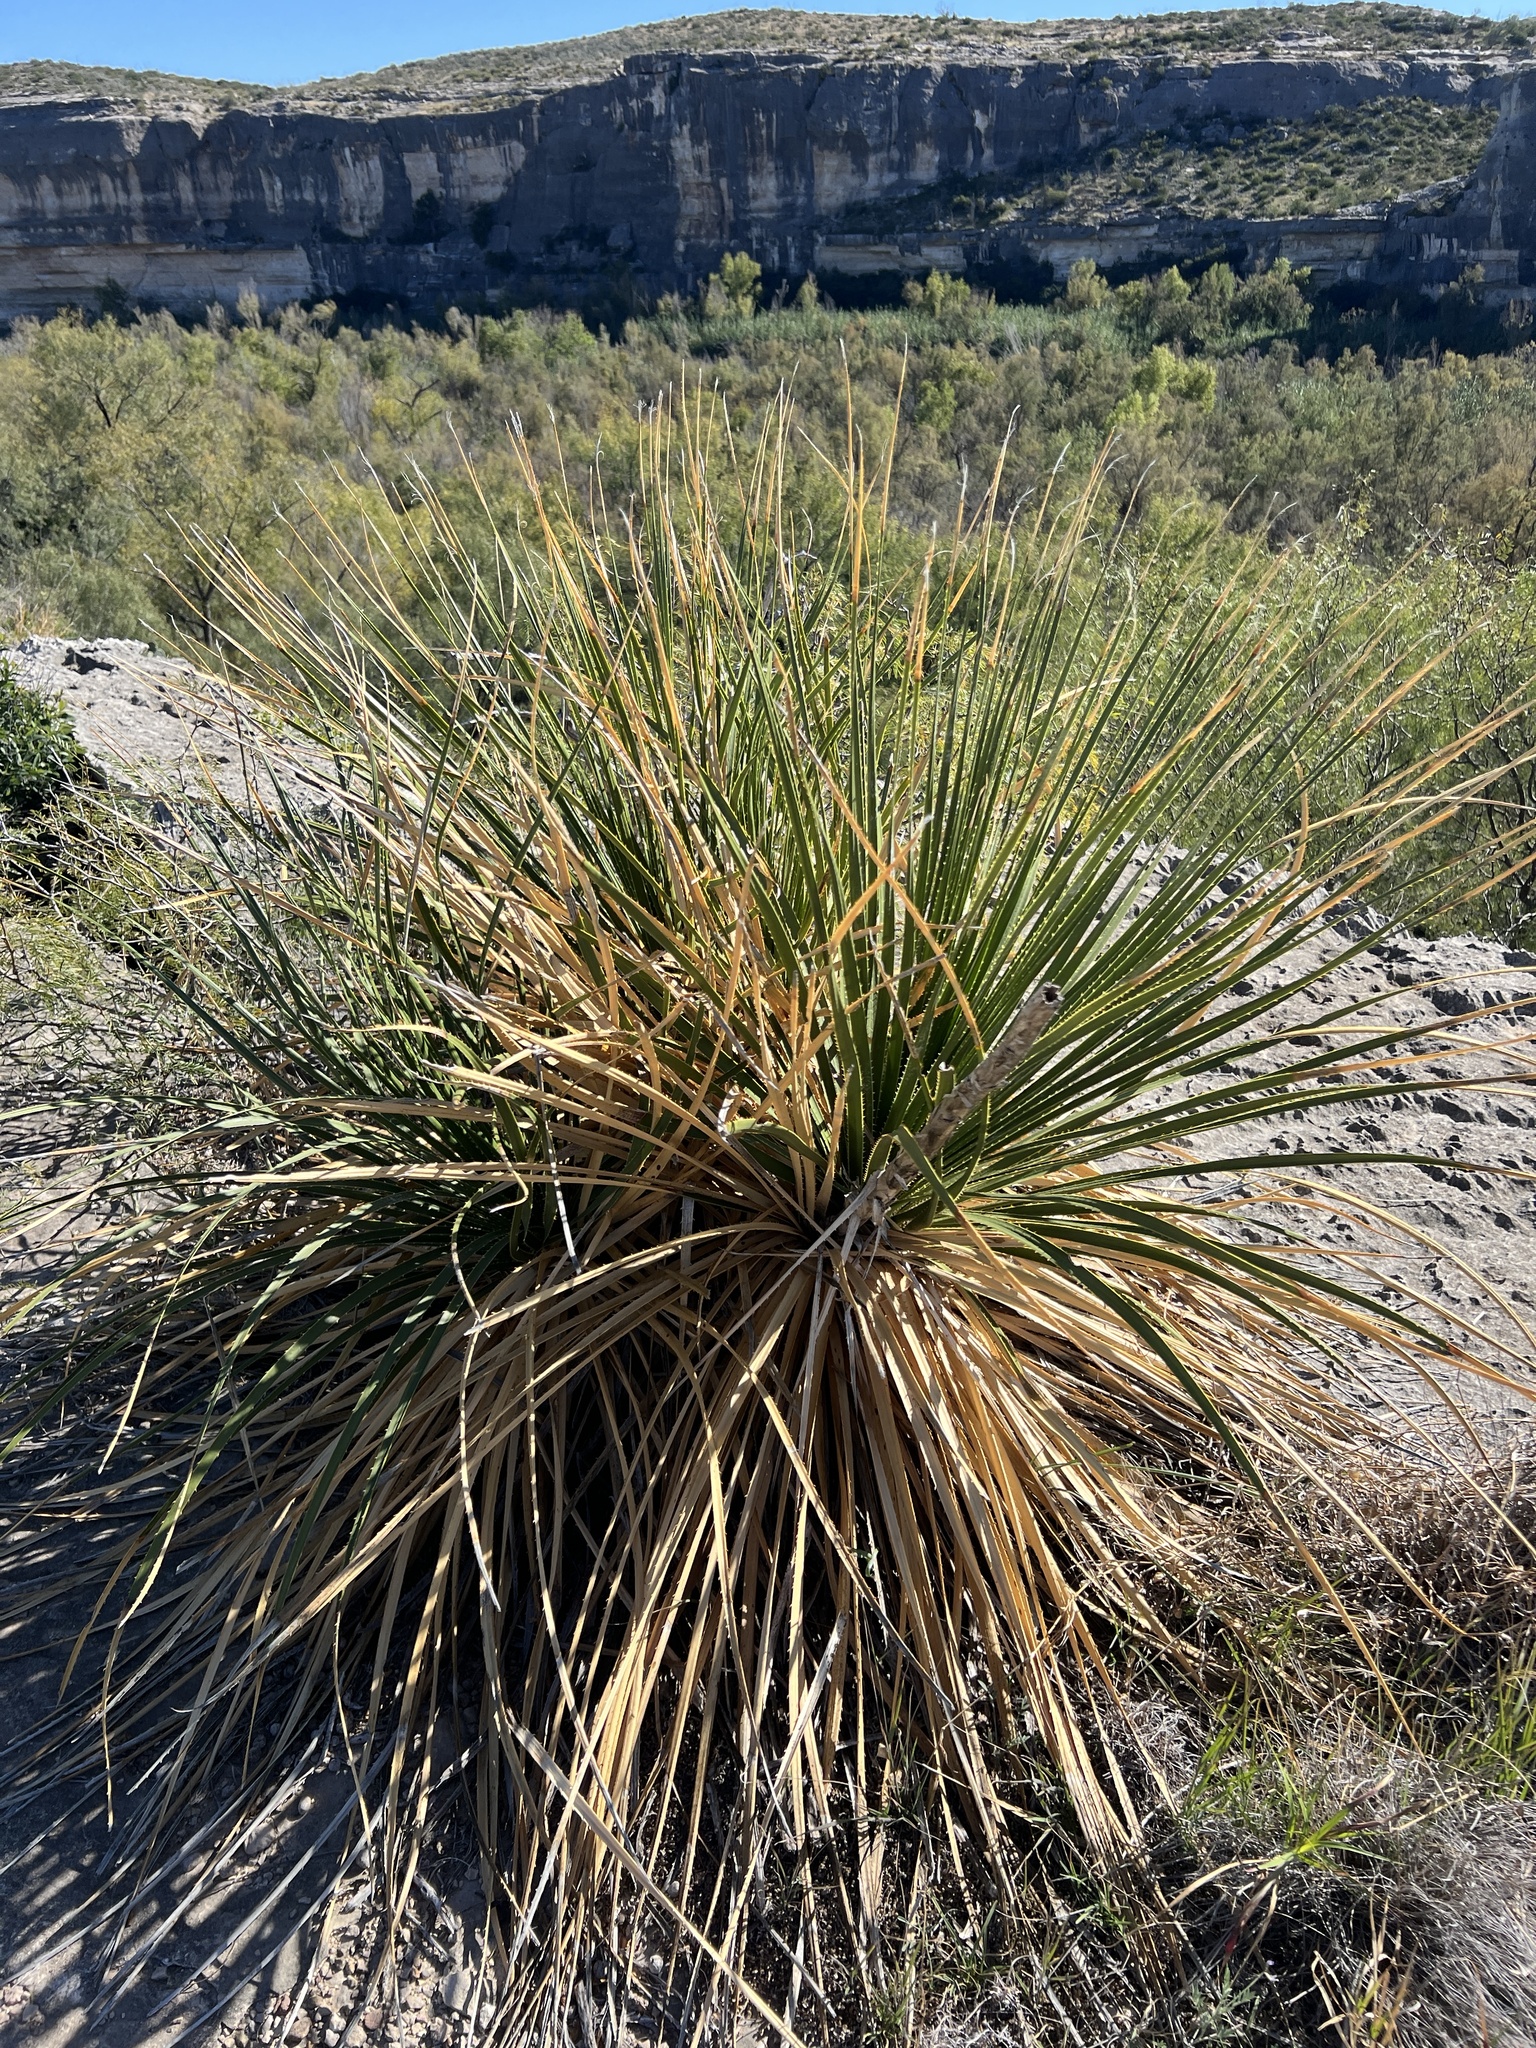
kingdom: Plantae
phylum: Tracheophyta
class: Liliopsida
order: Asparagales
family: Asparagaceae
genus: Dasylirion
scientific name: Dasylirion texanum
